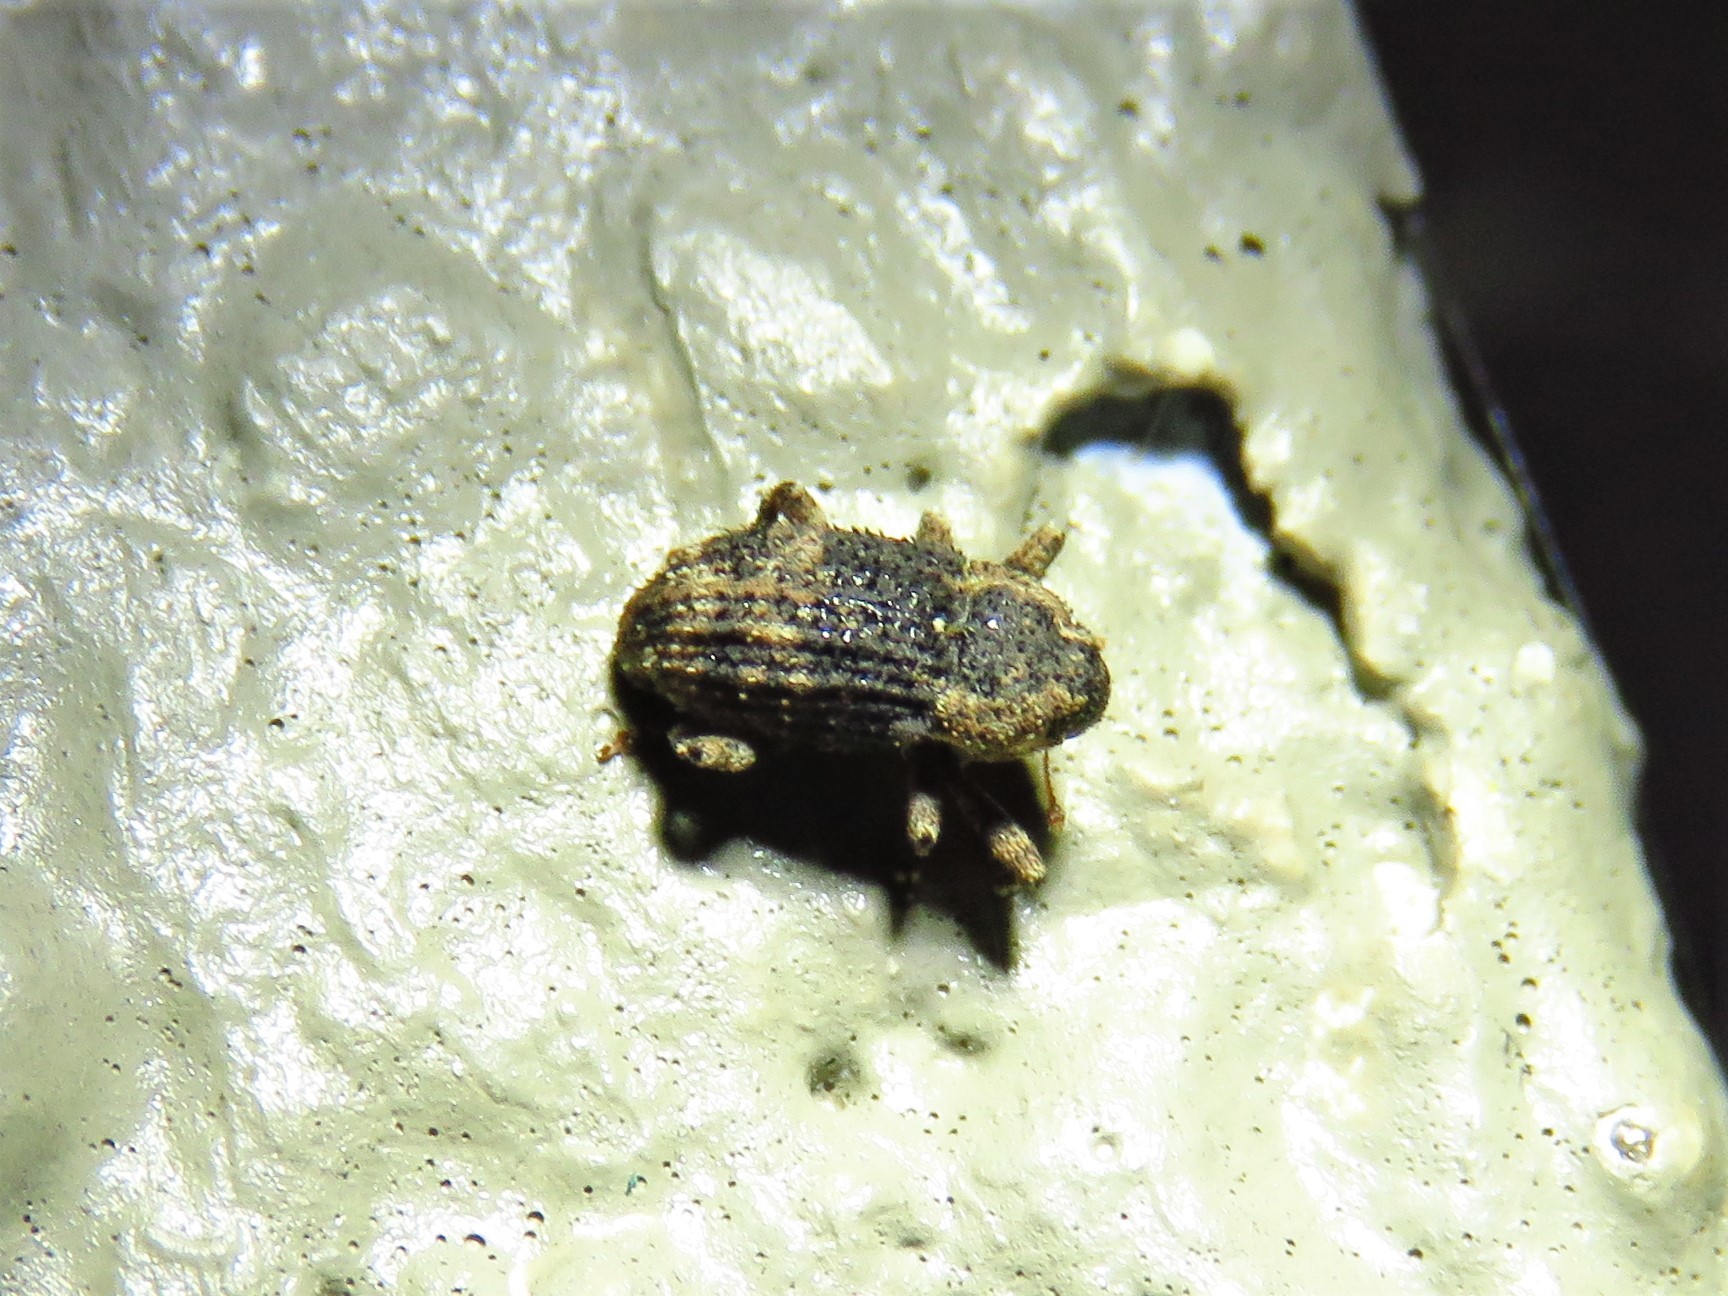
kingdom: Animalia
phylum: Arthropoda
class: Insecta
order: Coleoptera
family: Curculionidae
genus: Cophes
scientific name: Cophes fallax
